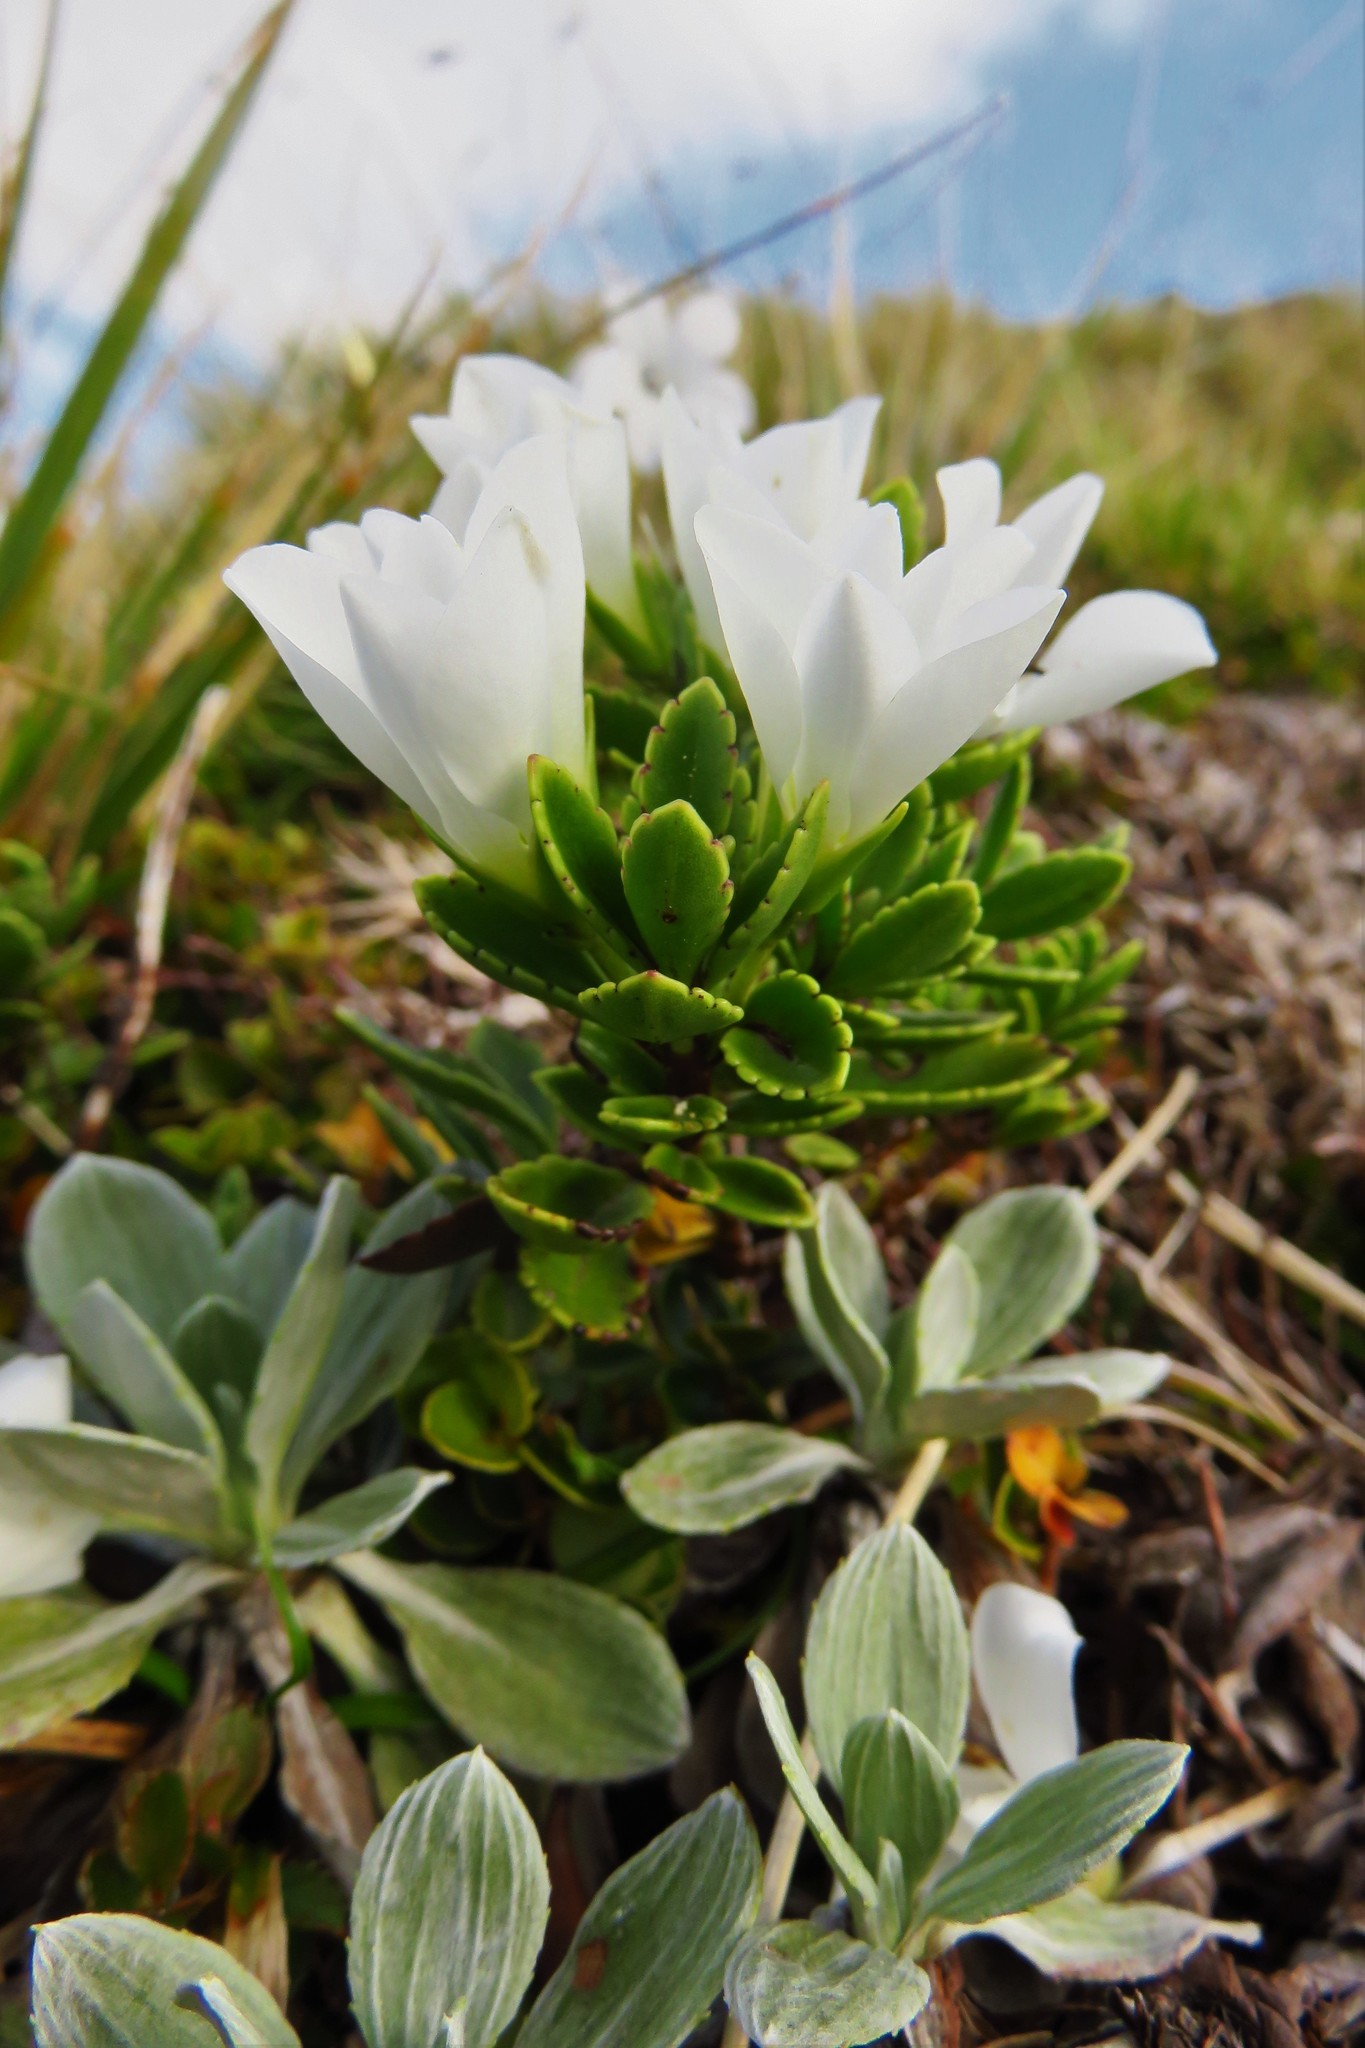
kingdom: Plantae
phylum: Tracheophyta
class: Magnoliopsida
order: Lamiales
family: Plantaginaceae
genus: Veronica
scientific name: Veronica macrantha
